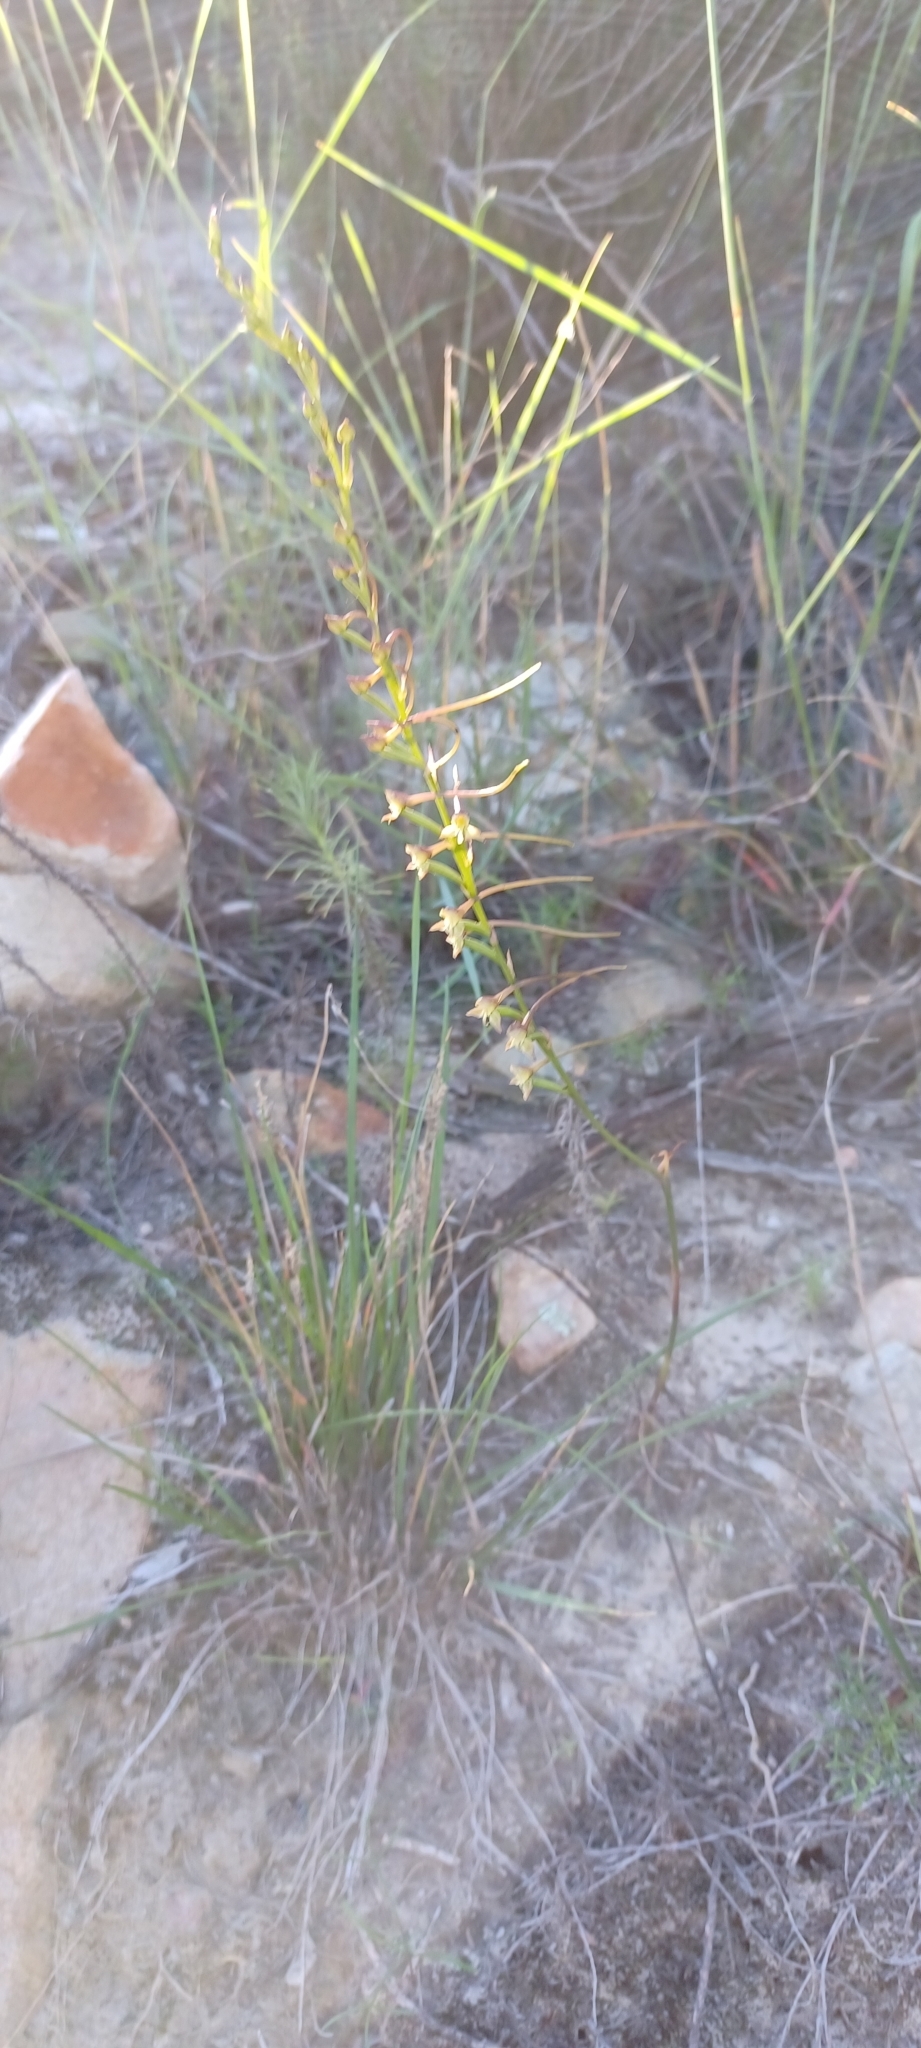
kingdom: Plantae
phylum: Tracheophyta
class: Liliopsida
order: Asparagales
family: Orchidaceae
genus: Disa
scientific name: Disa salteri
